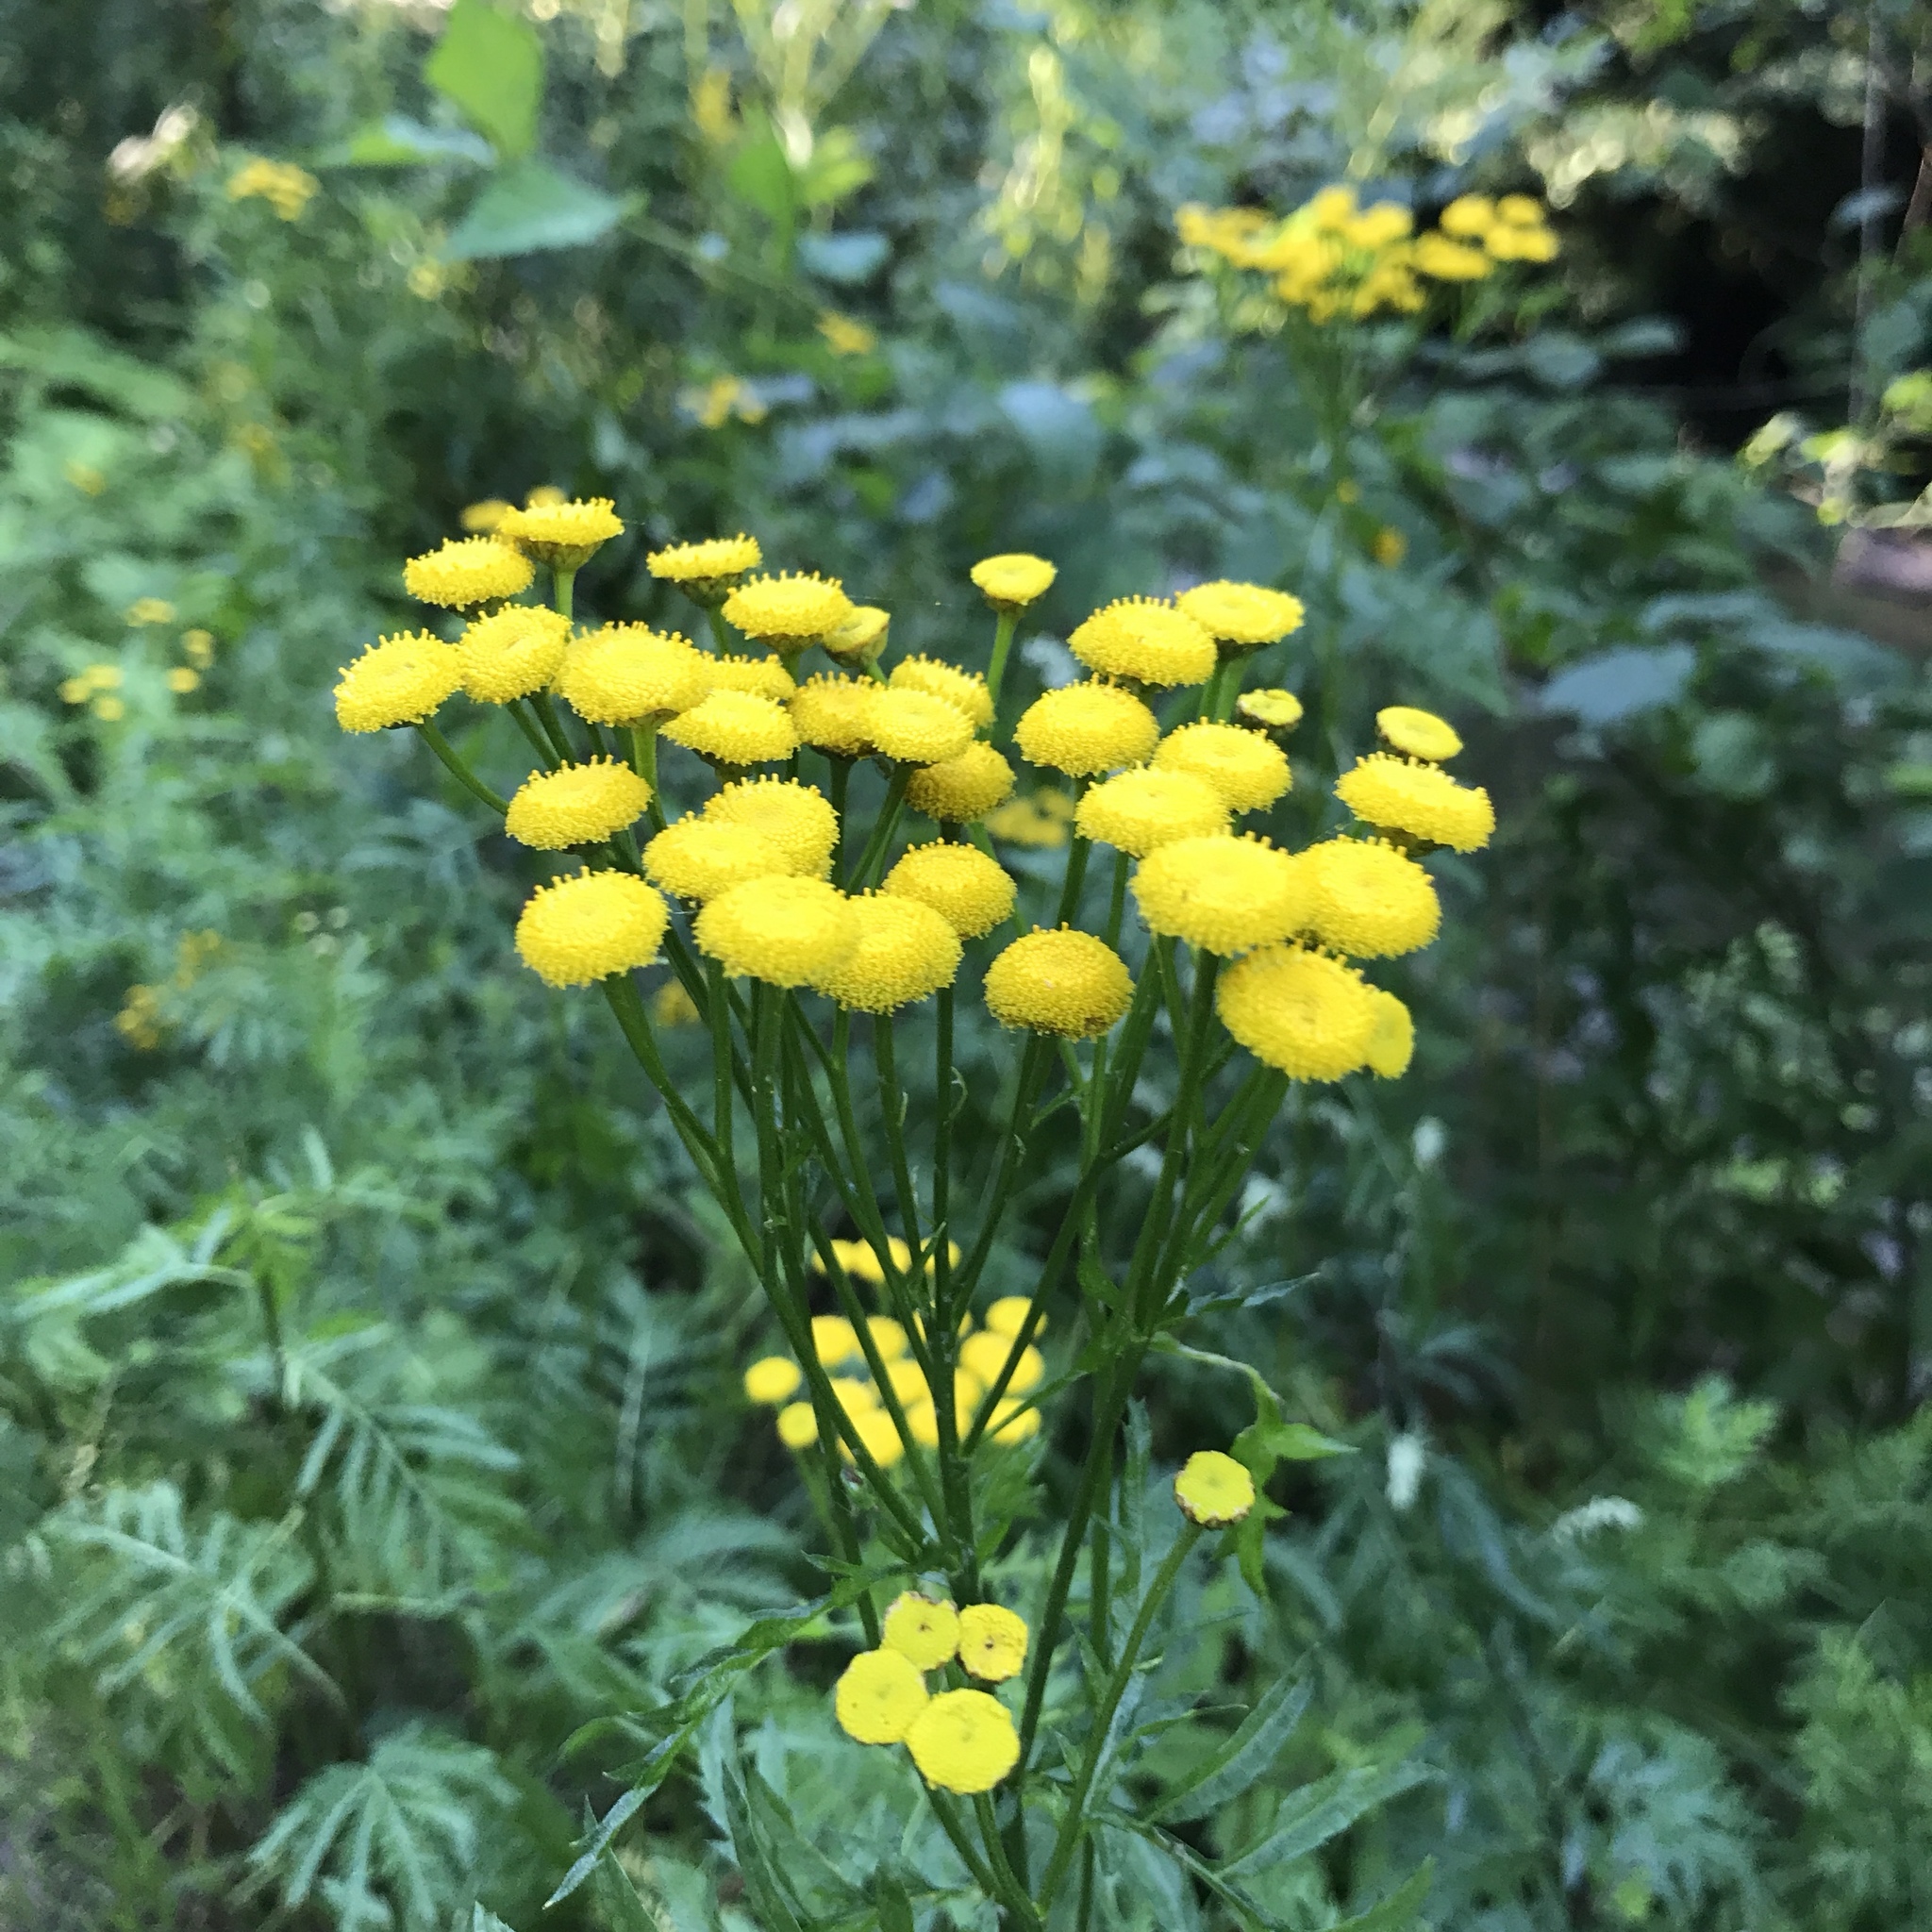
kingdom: Plantae
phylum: Tracheophyta
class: Magnoliopsida
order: Asterales
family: Asteraceae
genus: Tanacetum
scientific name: Tanacetum vulgare
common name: Common tansy
